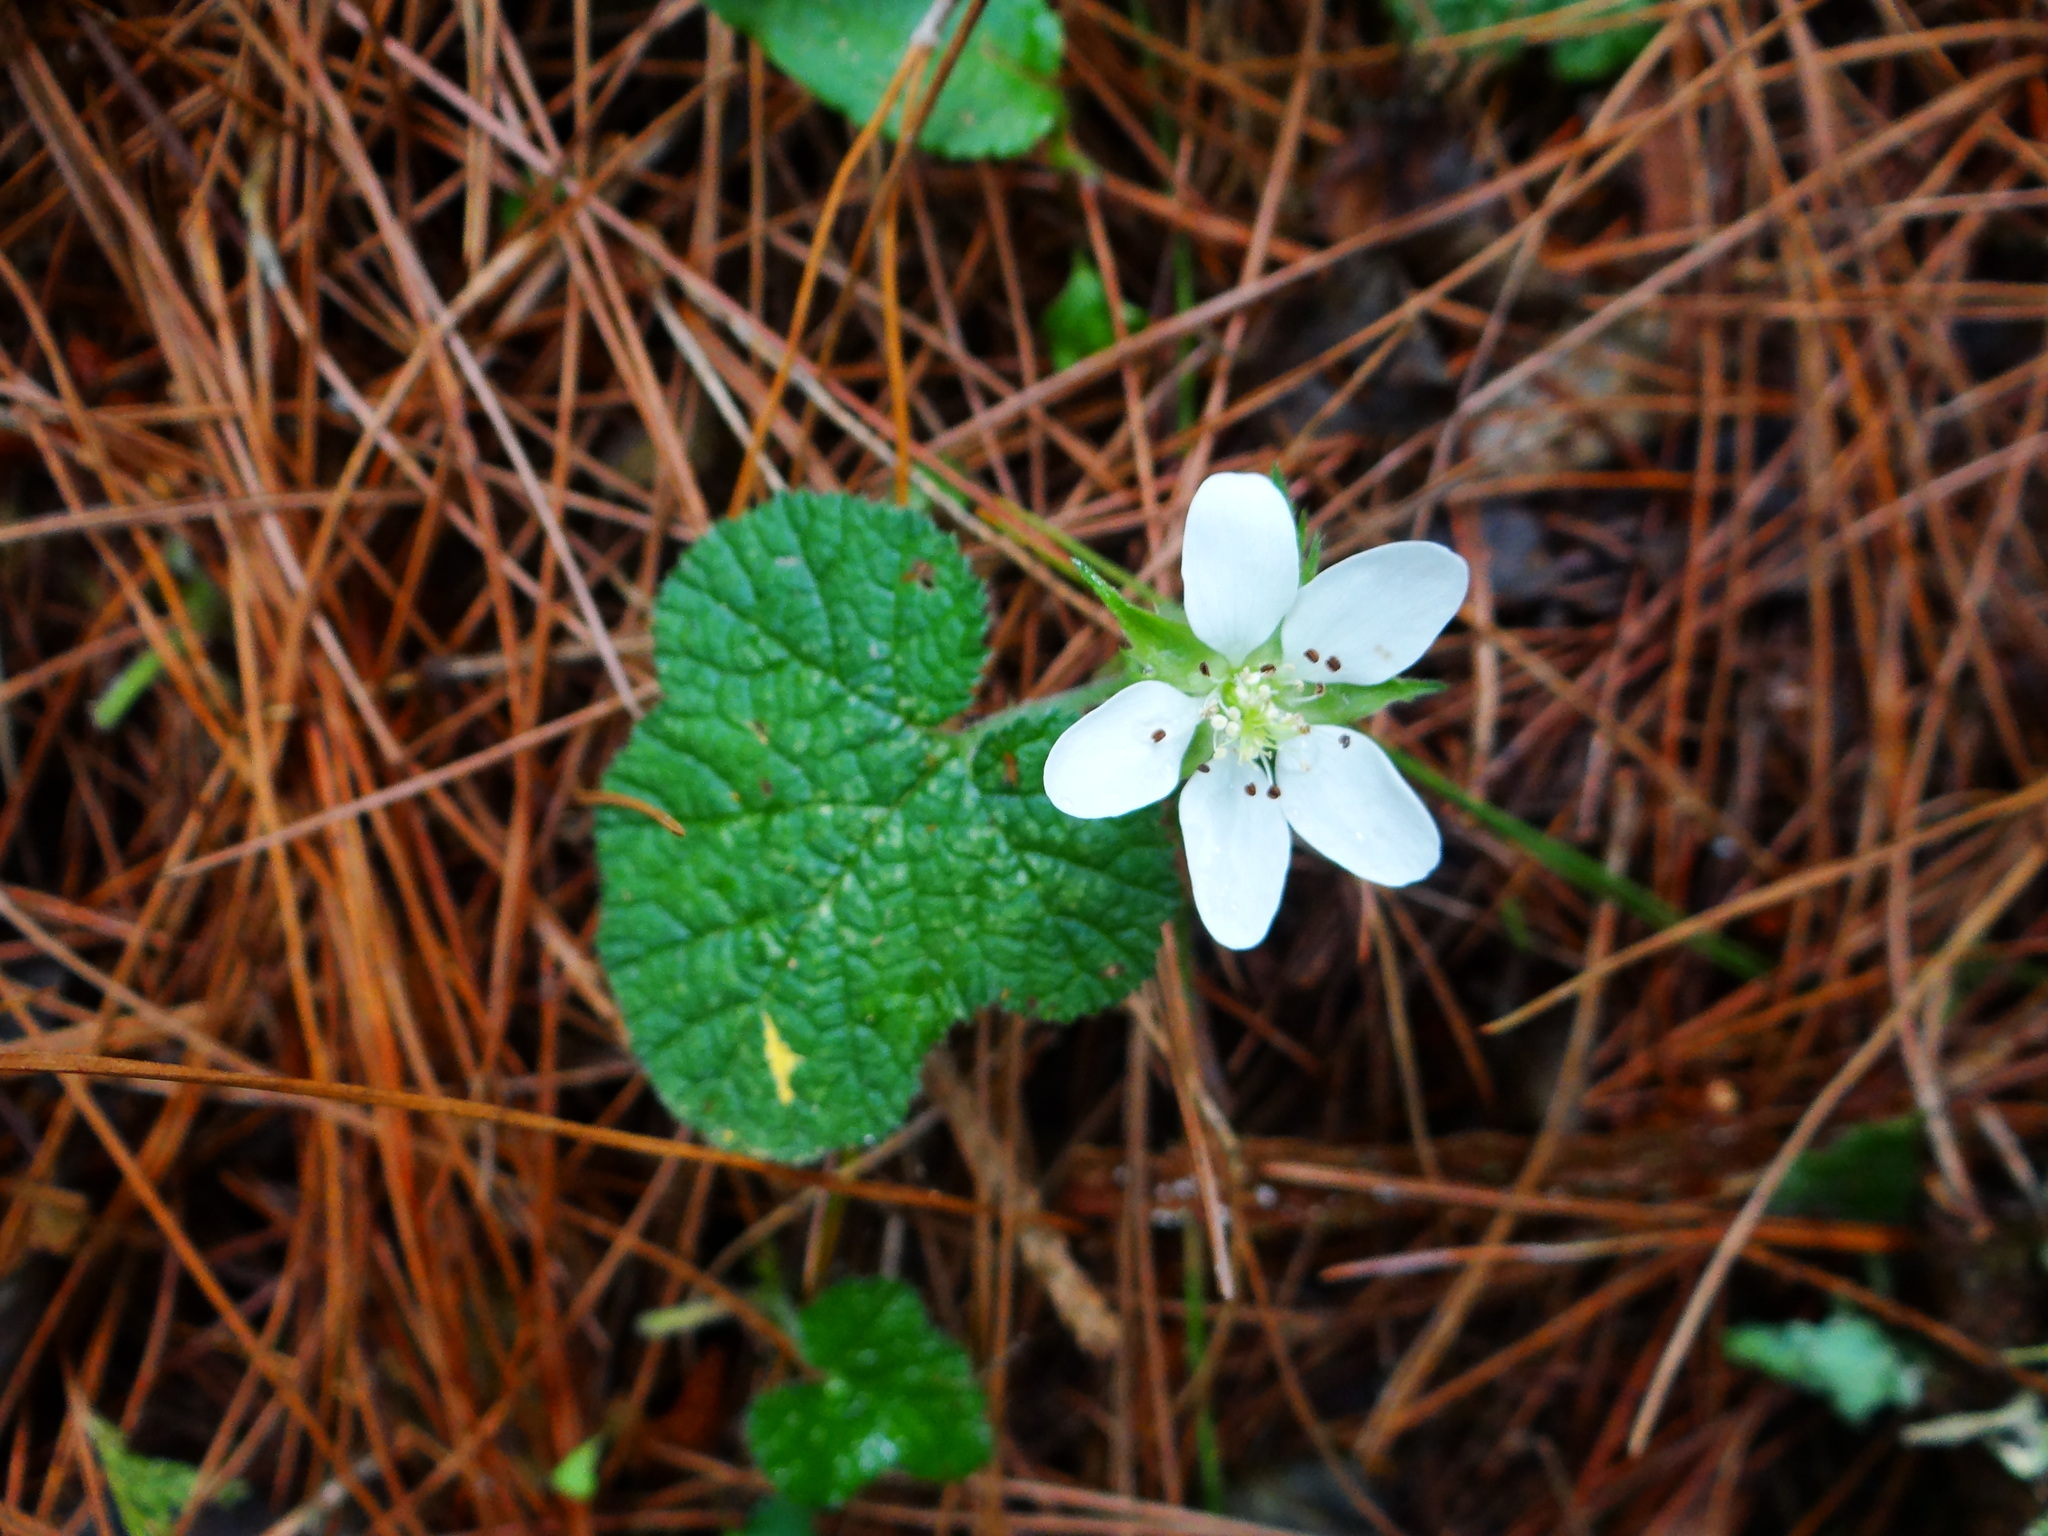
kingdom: Plantae
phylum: Tracheophyta
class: Magnoliopsida
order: Rosales
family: Rosaceae
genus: Rubus
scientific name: Rubus pectinellus
